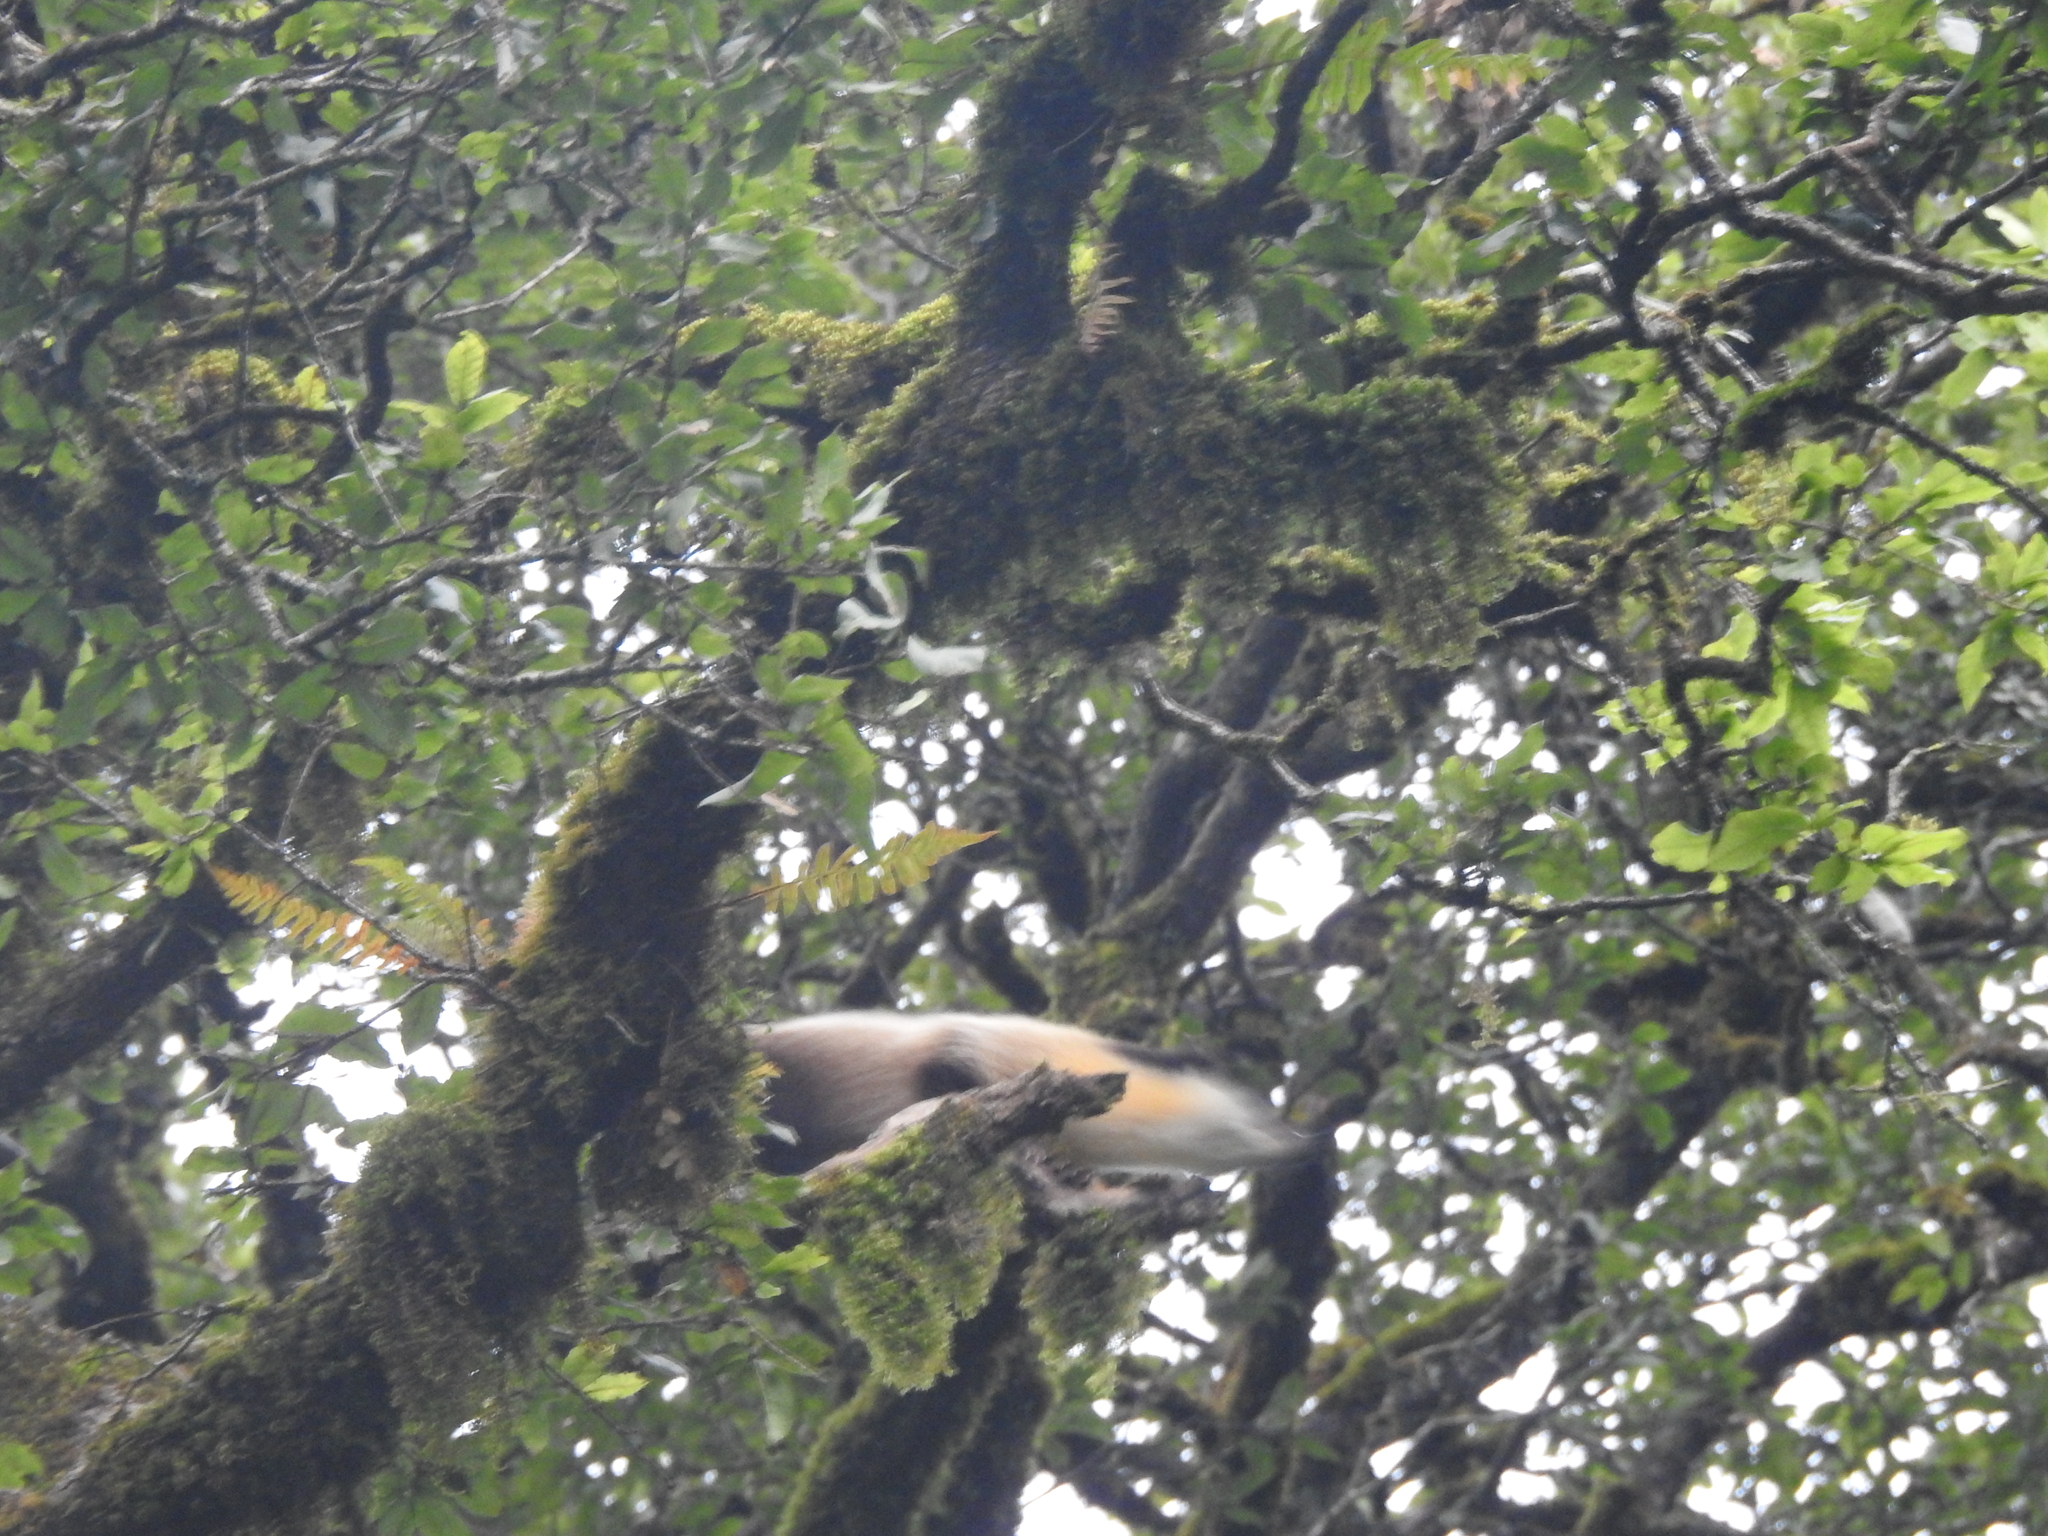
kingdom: Animalia
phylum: Chordata
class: Mammalia
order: Carnivora
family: Mustelidae
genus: Martes
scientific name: Martes flavigula
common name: Yellow-throated marten
